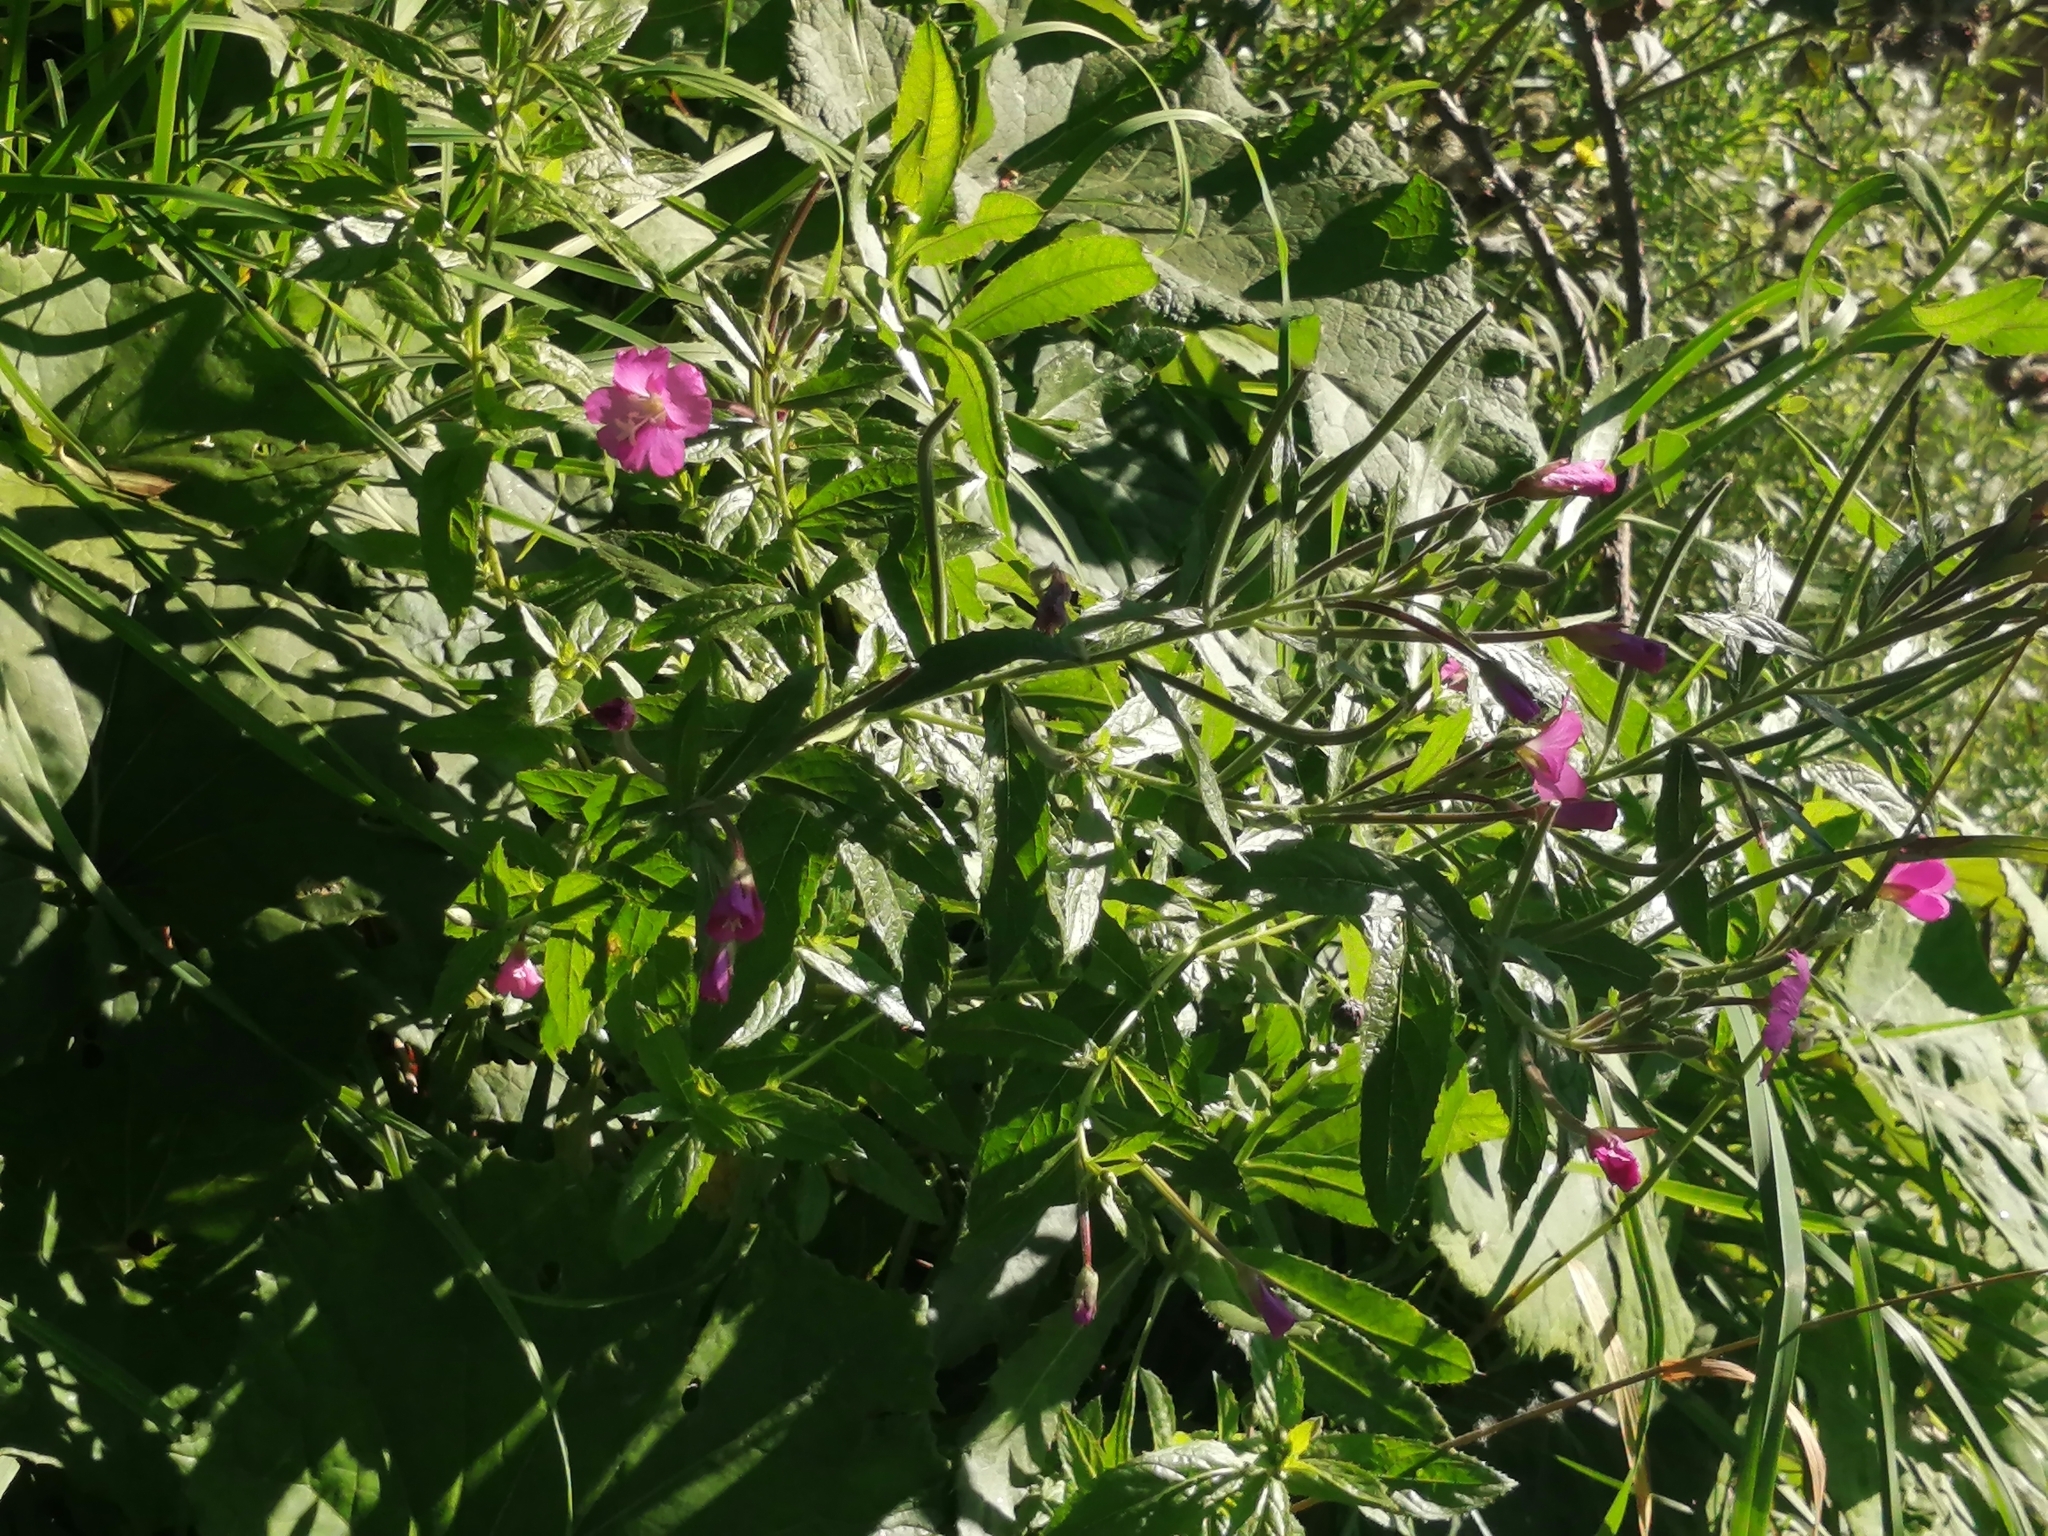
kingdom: Plantae
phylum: Tracheophyta
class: Magnoliopsida
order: Myrtales
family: Onagraceae
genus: Epilobium
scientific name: Epilobium hirsutum
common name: Great willowherb
